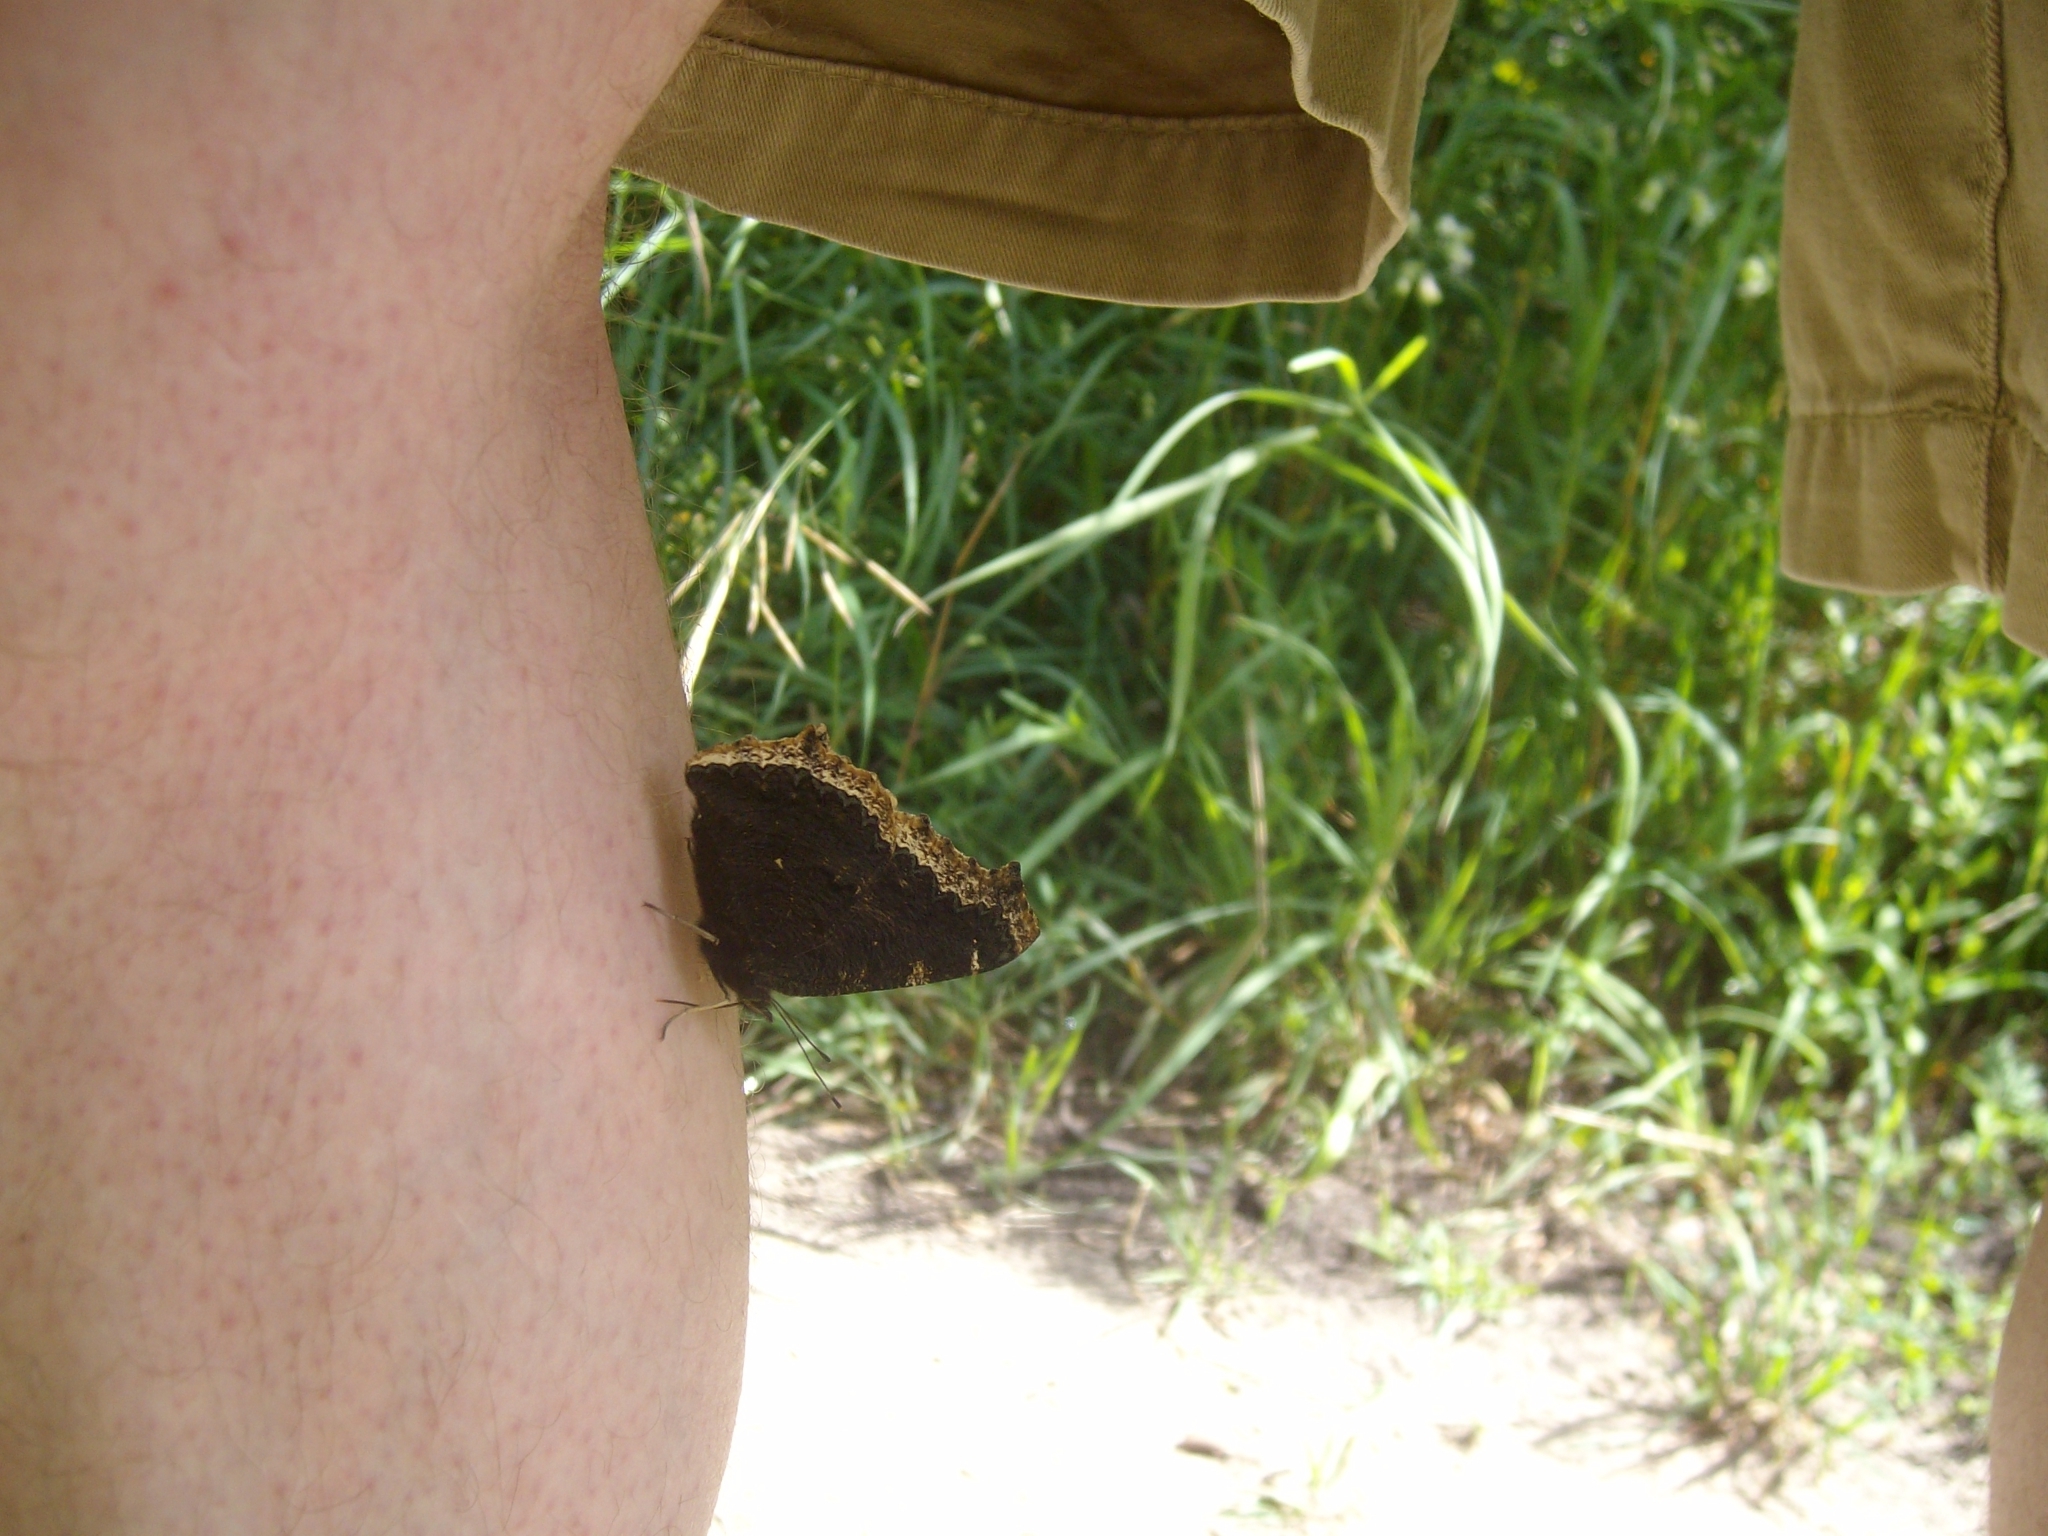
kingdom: Animalia
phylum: Arthropoda
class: Insecta
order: Lepidoptera
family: Nymphalidae
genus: Nymphalis
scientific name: Nymphalis antiopa
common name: Camberwell beauty
